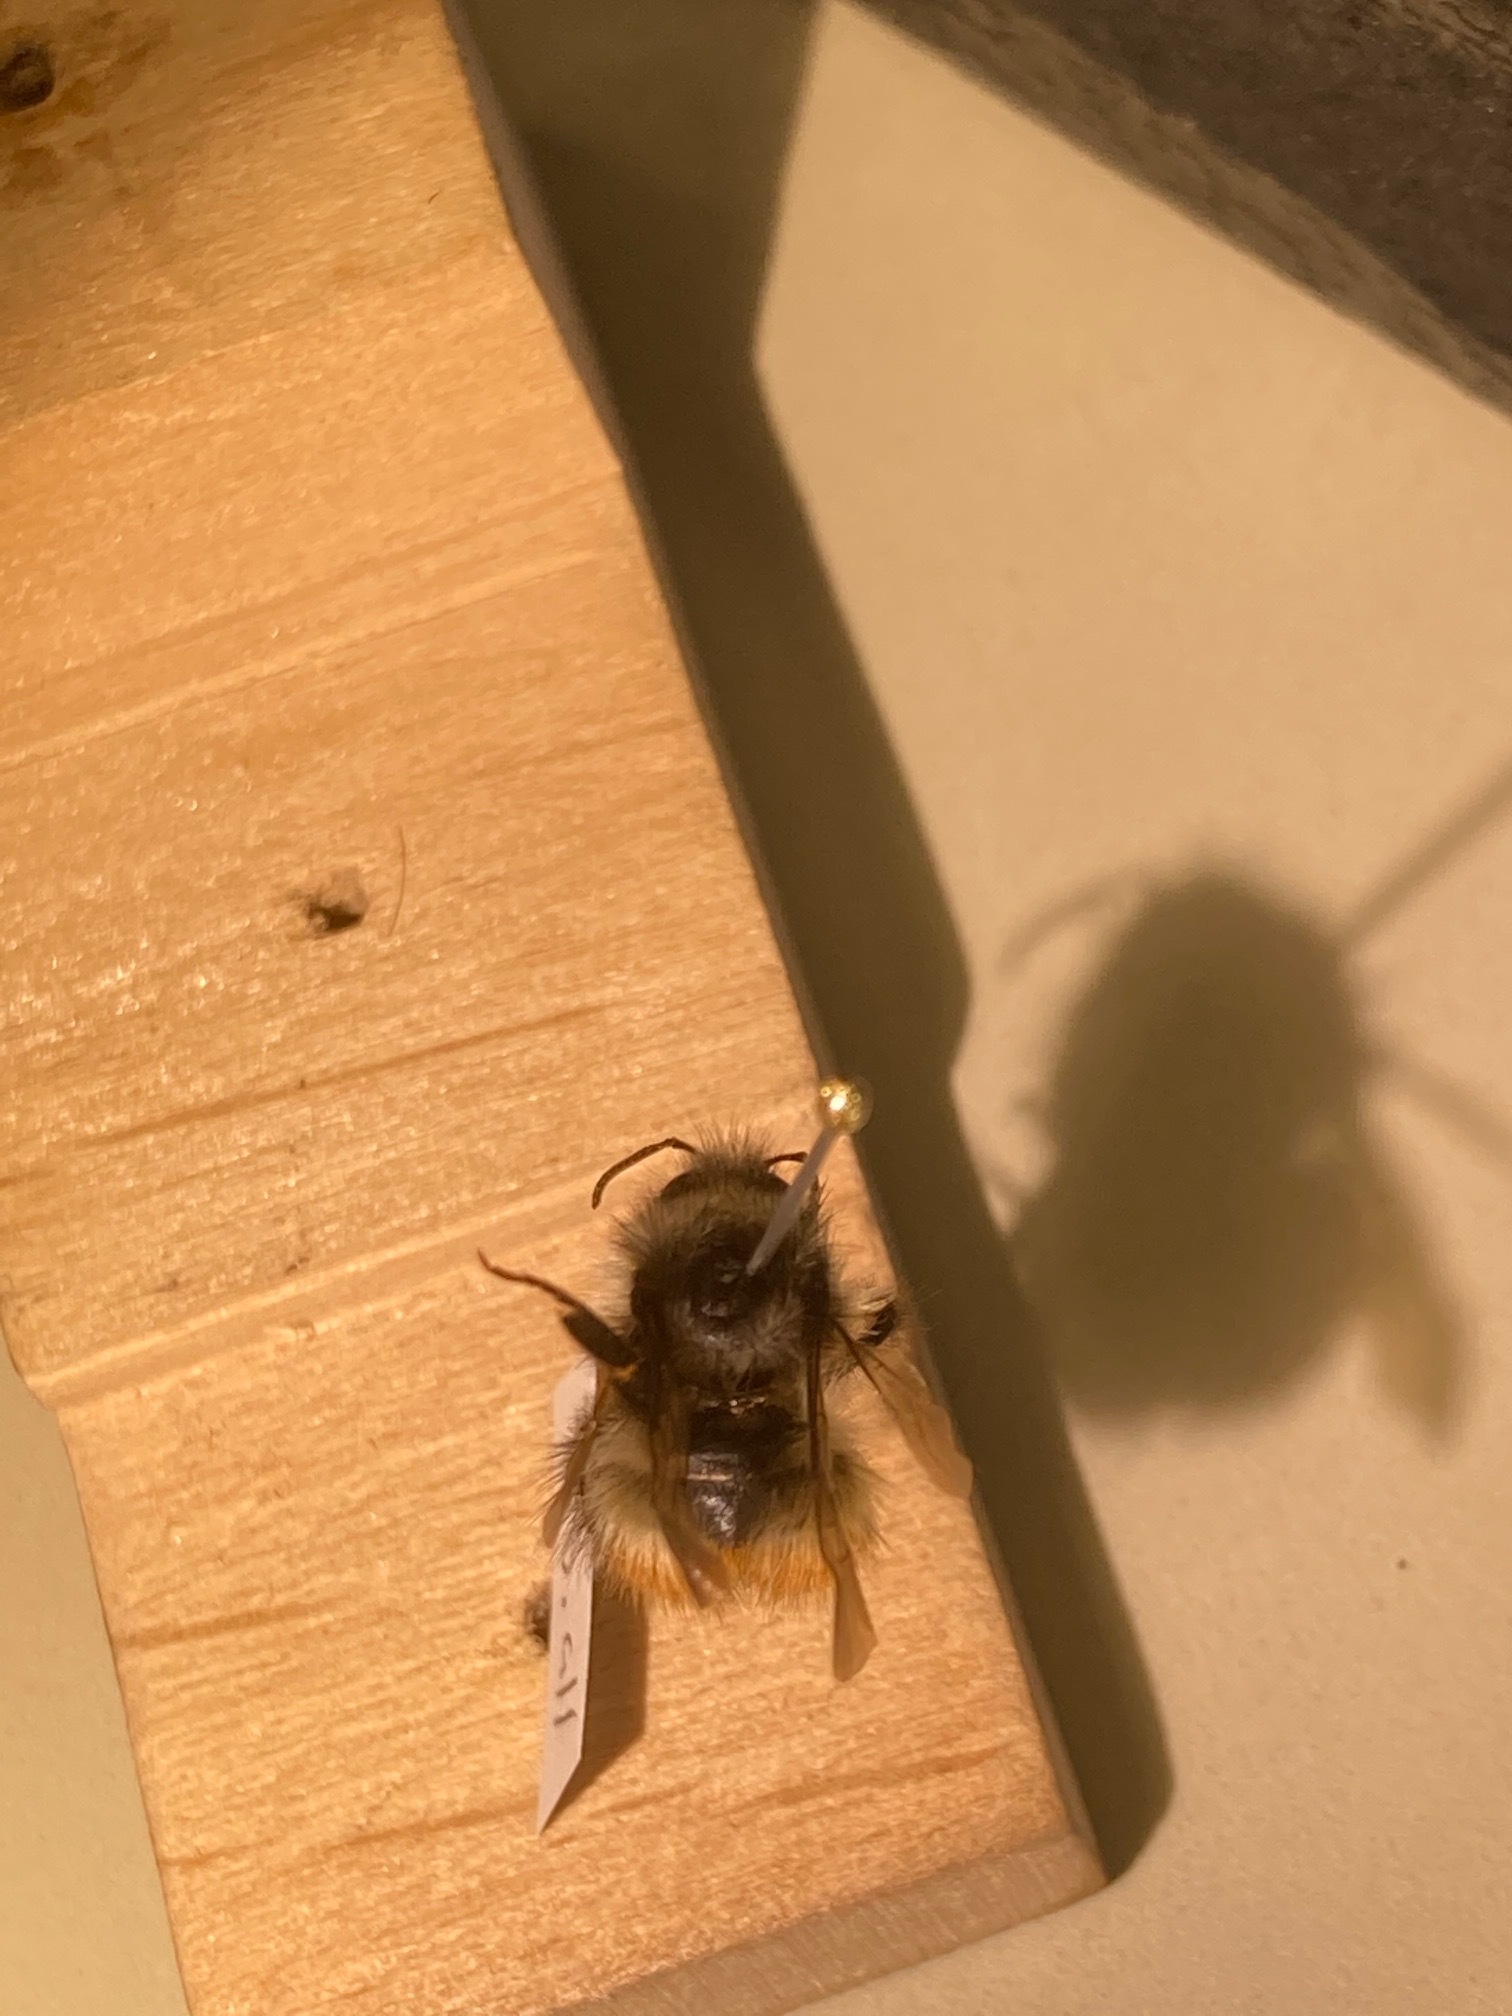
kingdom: Animalia
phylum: Arthropoda
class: Insecta
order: Hymenoptera
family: Apidae
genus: Bombus
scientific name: Bombus flavifrons
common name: Yellow head bumble bee
